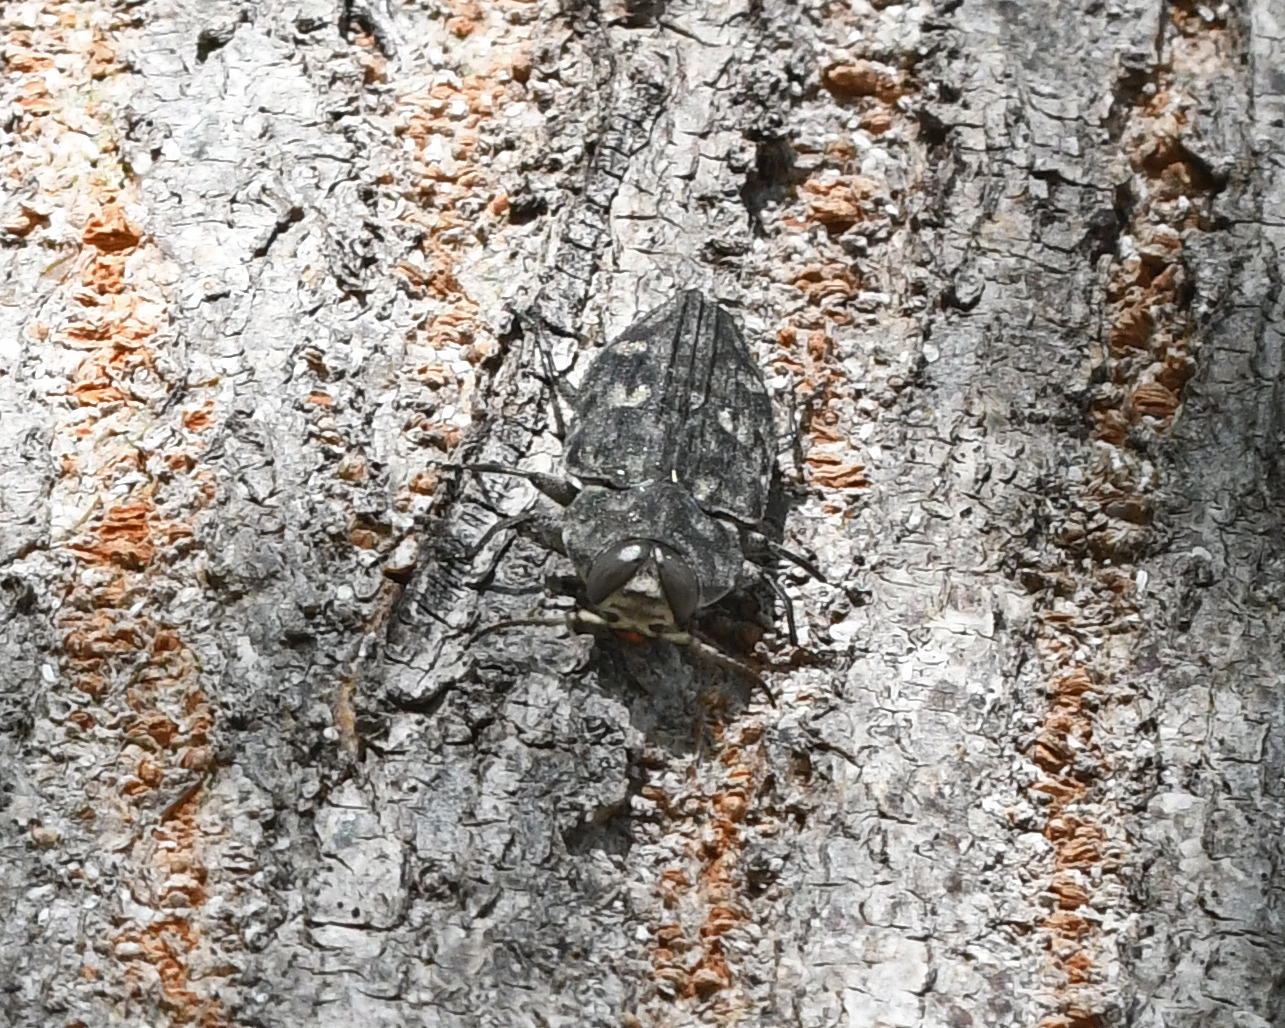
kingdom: Animalia
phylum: Arthropoda
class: Insecta
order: Coleoptera
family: Buprestidae
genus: Chrysobothris
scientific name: Chrysobothris tranquebarica
